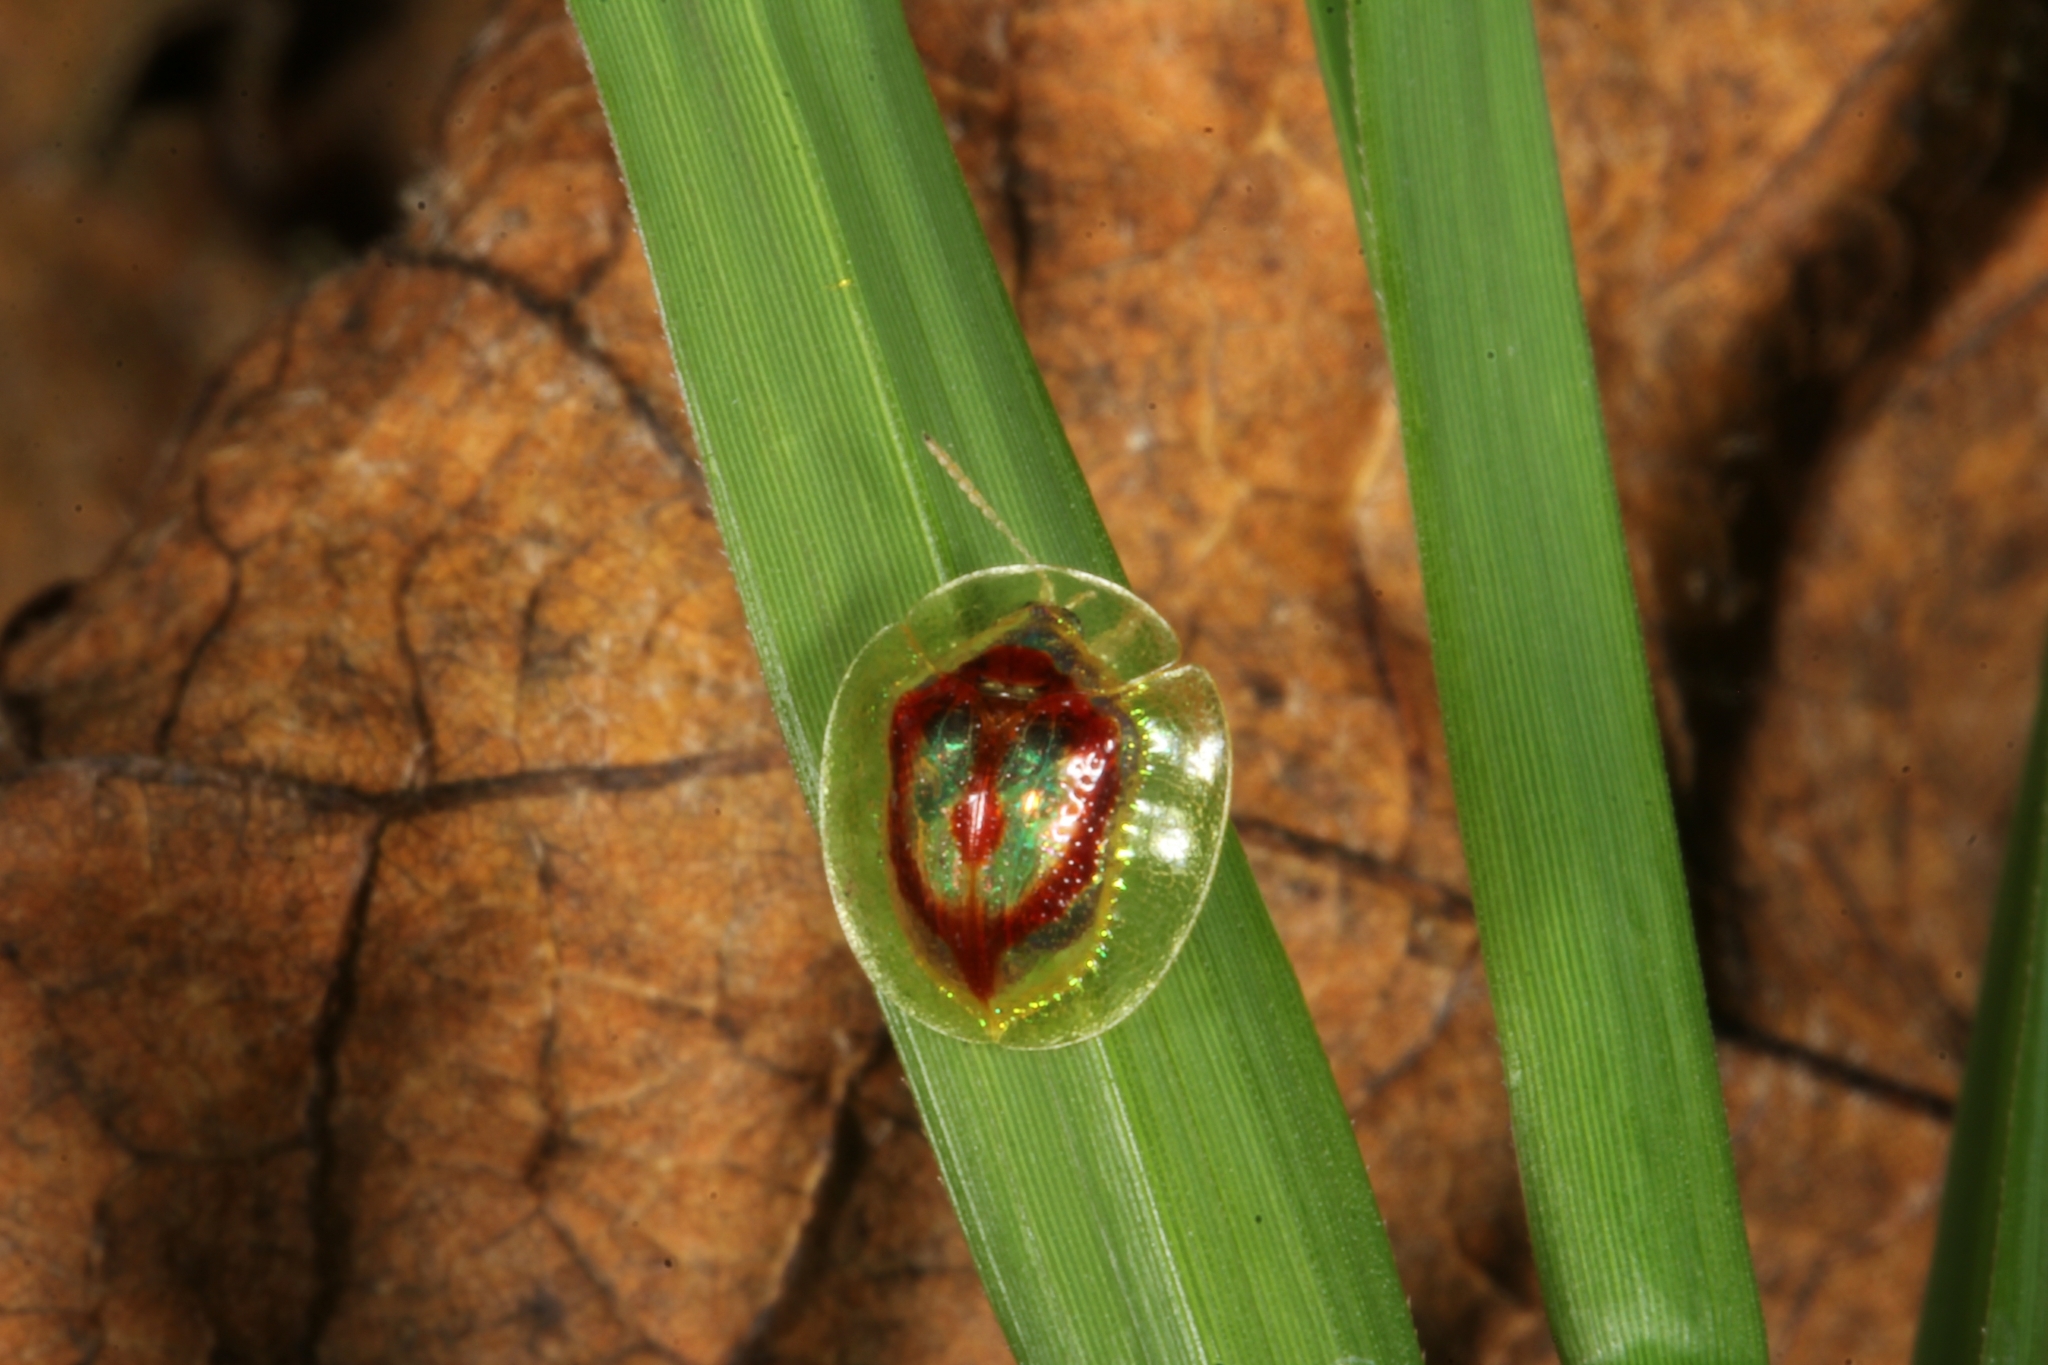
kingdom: Animalia
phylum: Arthropoda
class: Insecta
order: Coleoptera
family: Chrysomelidae
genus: Charidotella
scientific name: Charidotella amoena
